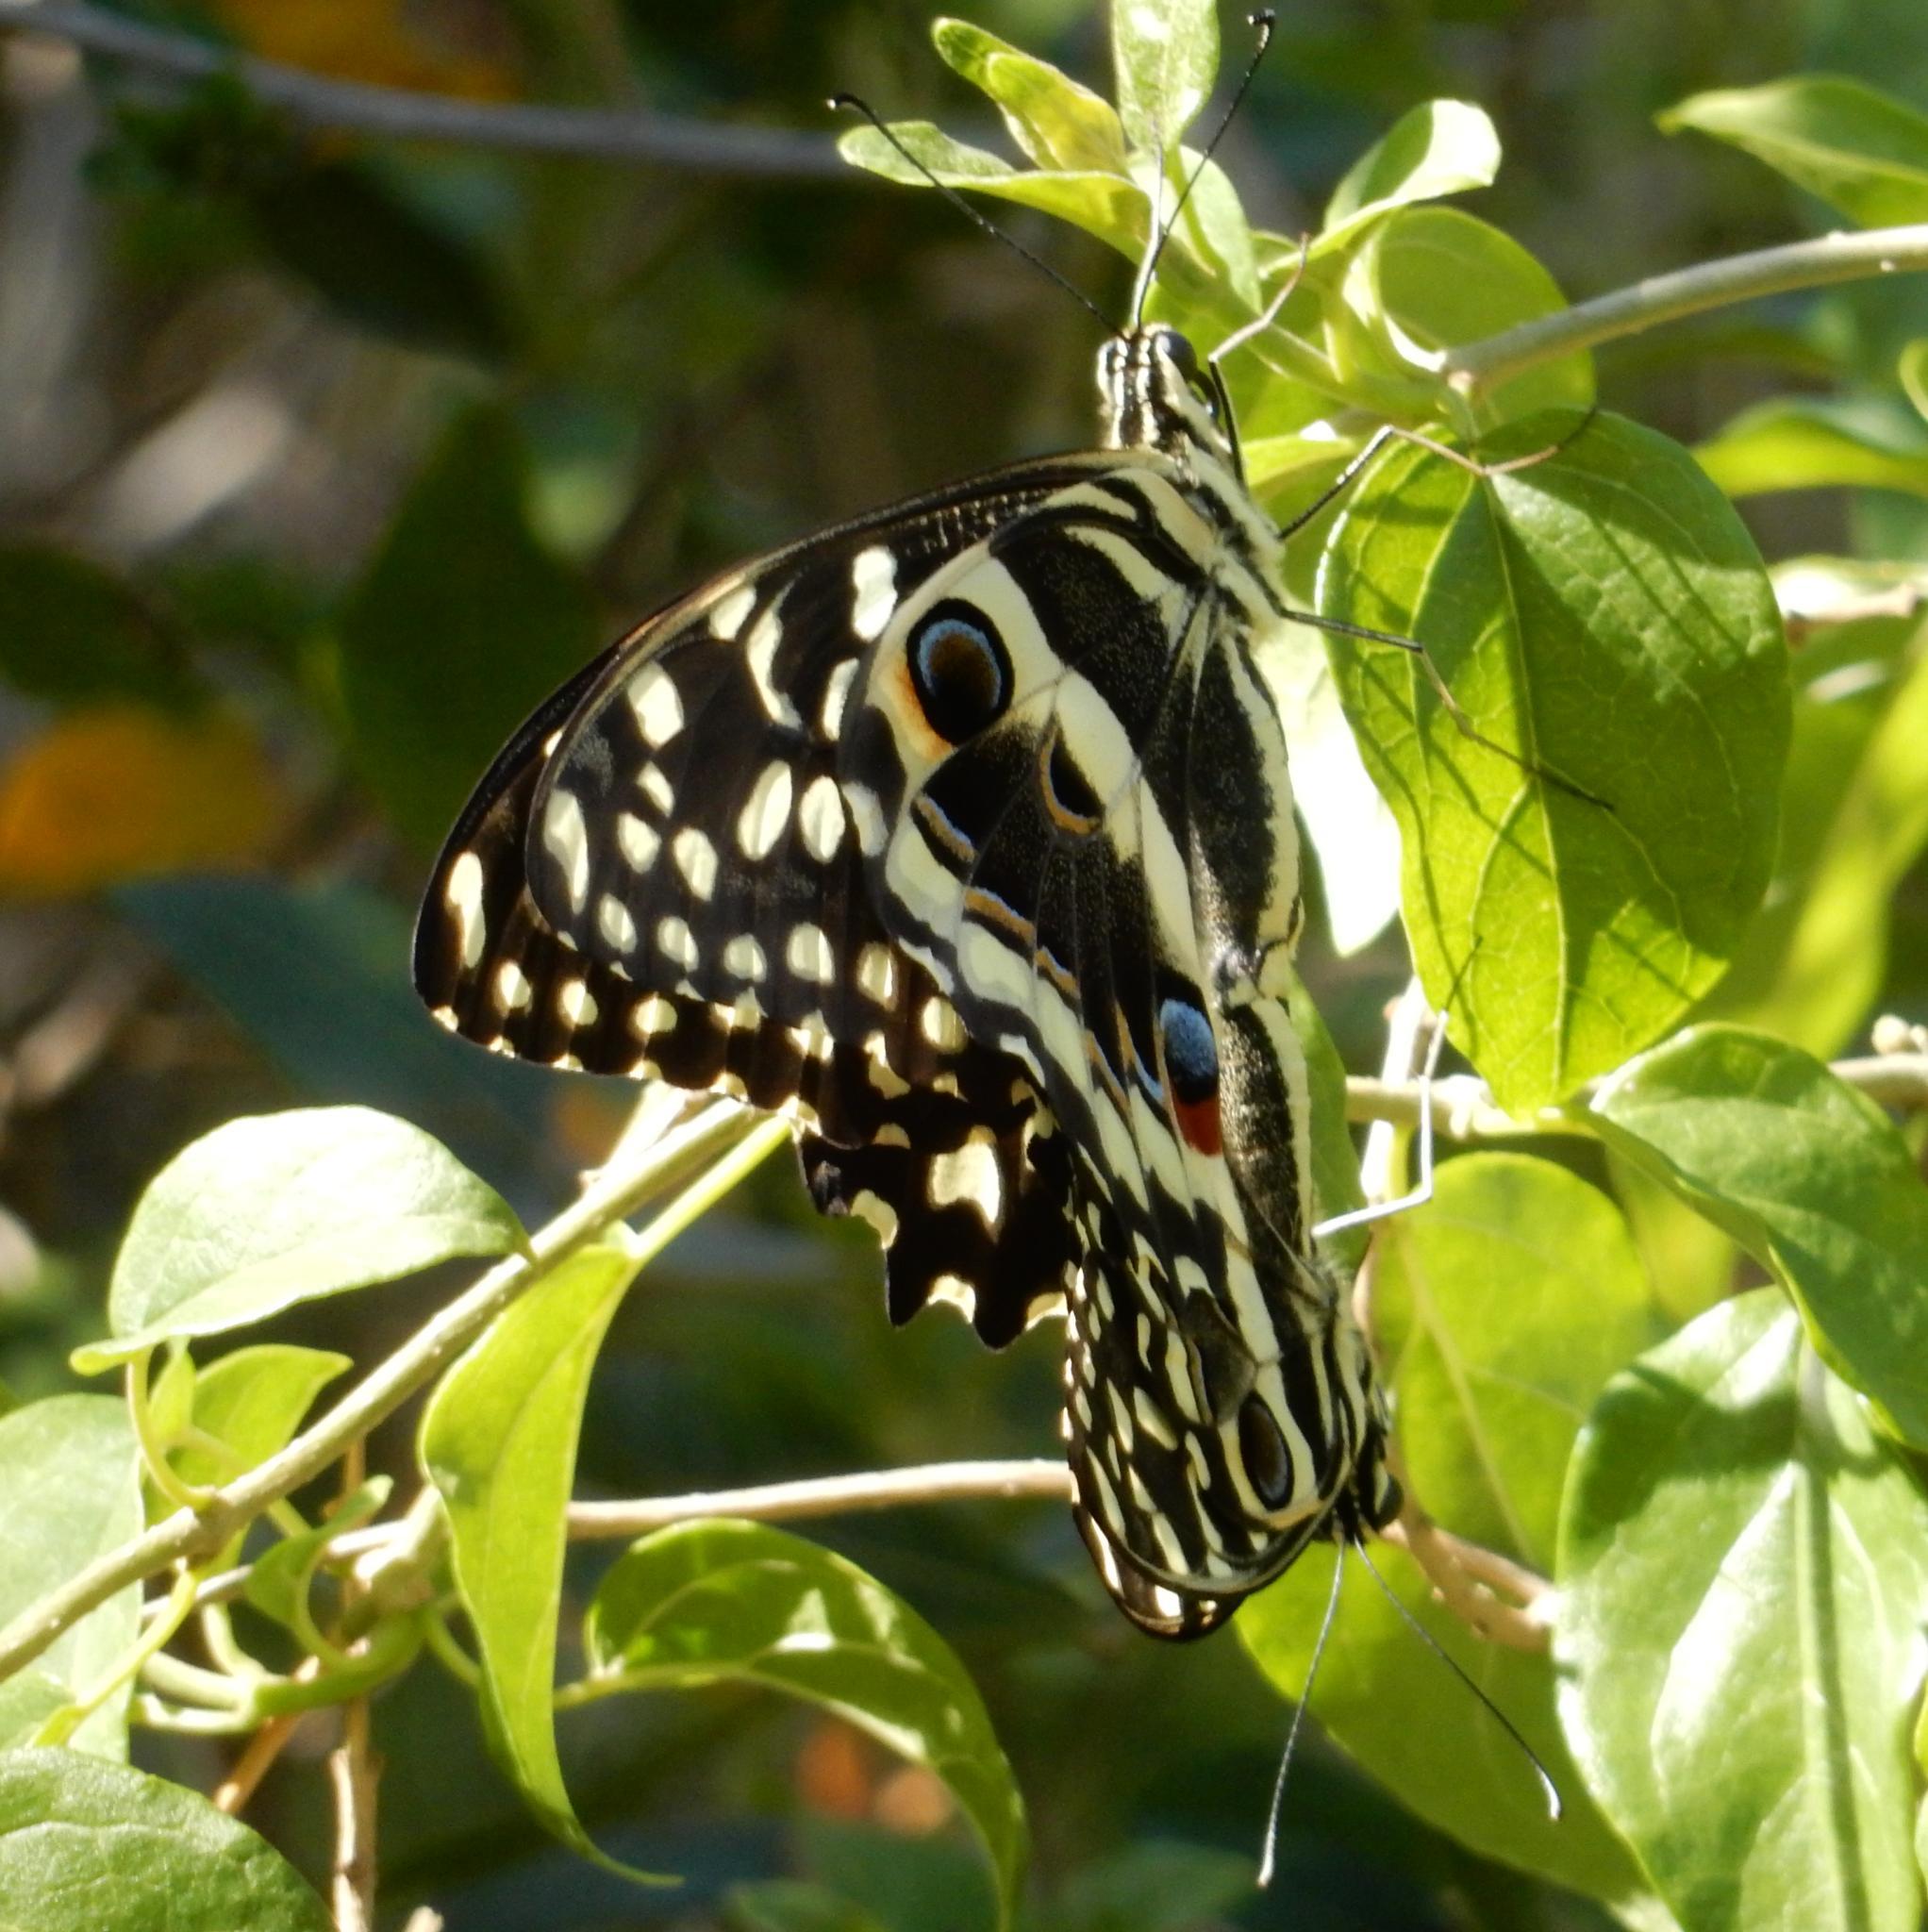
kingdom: Animalia
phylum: Arthropoda
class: Insecta
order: Lepidoptera
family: Papilionidae
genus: Papilio
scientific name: Papilio demodocus
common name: Christmas butterfly
